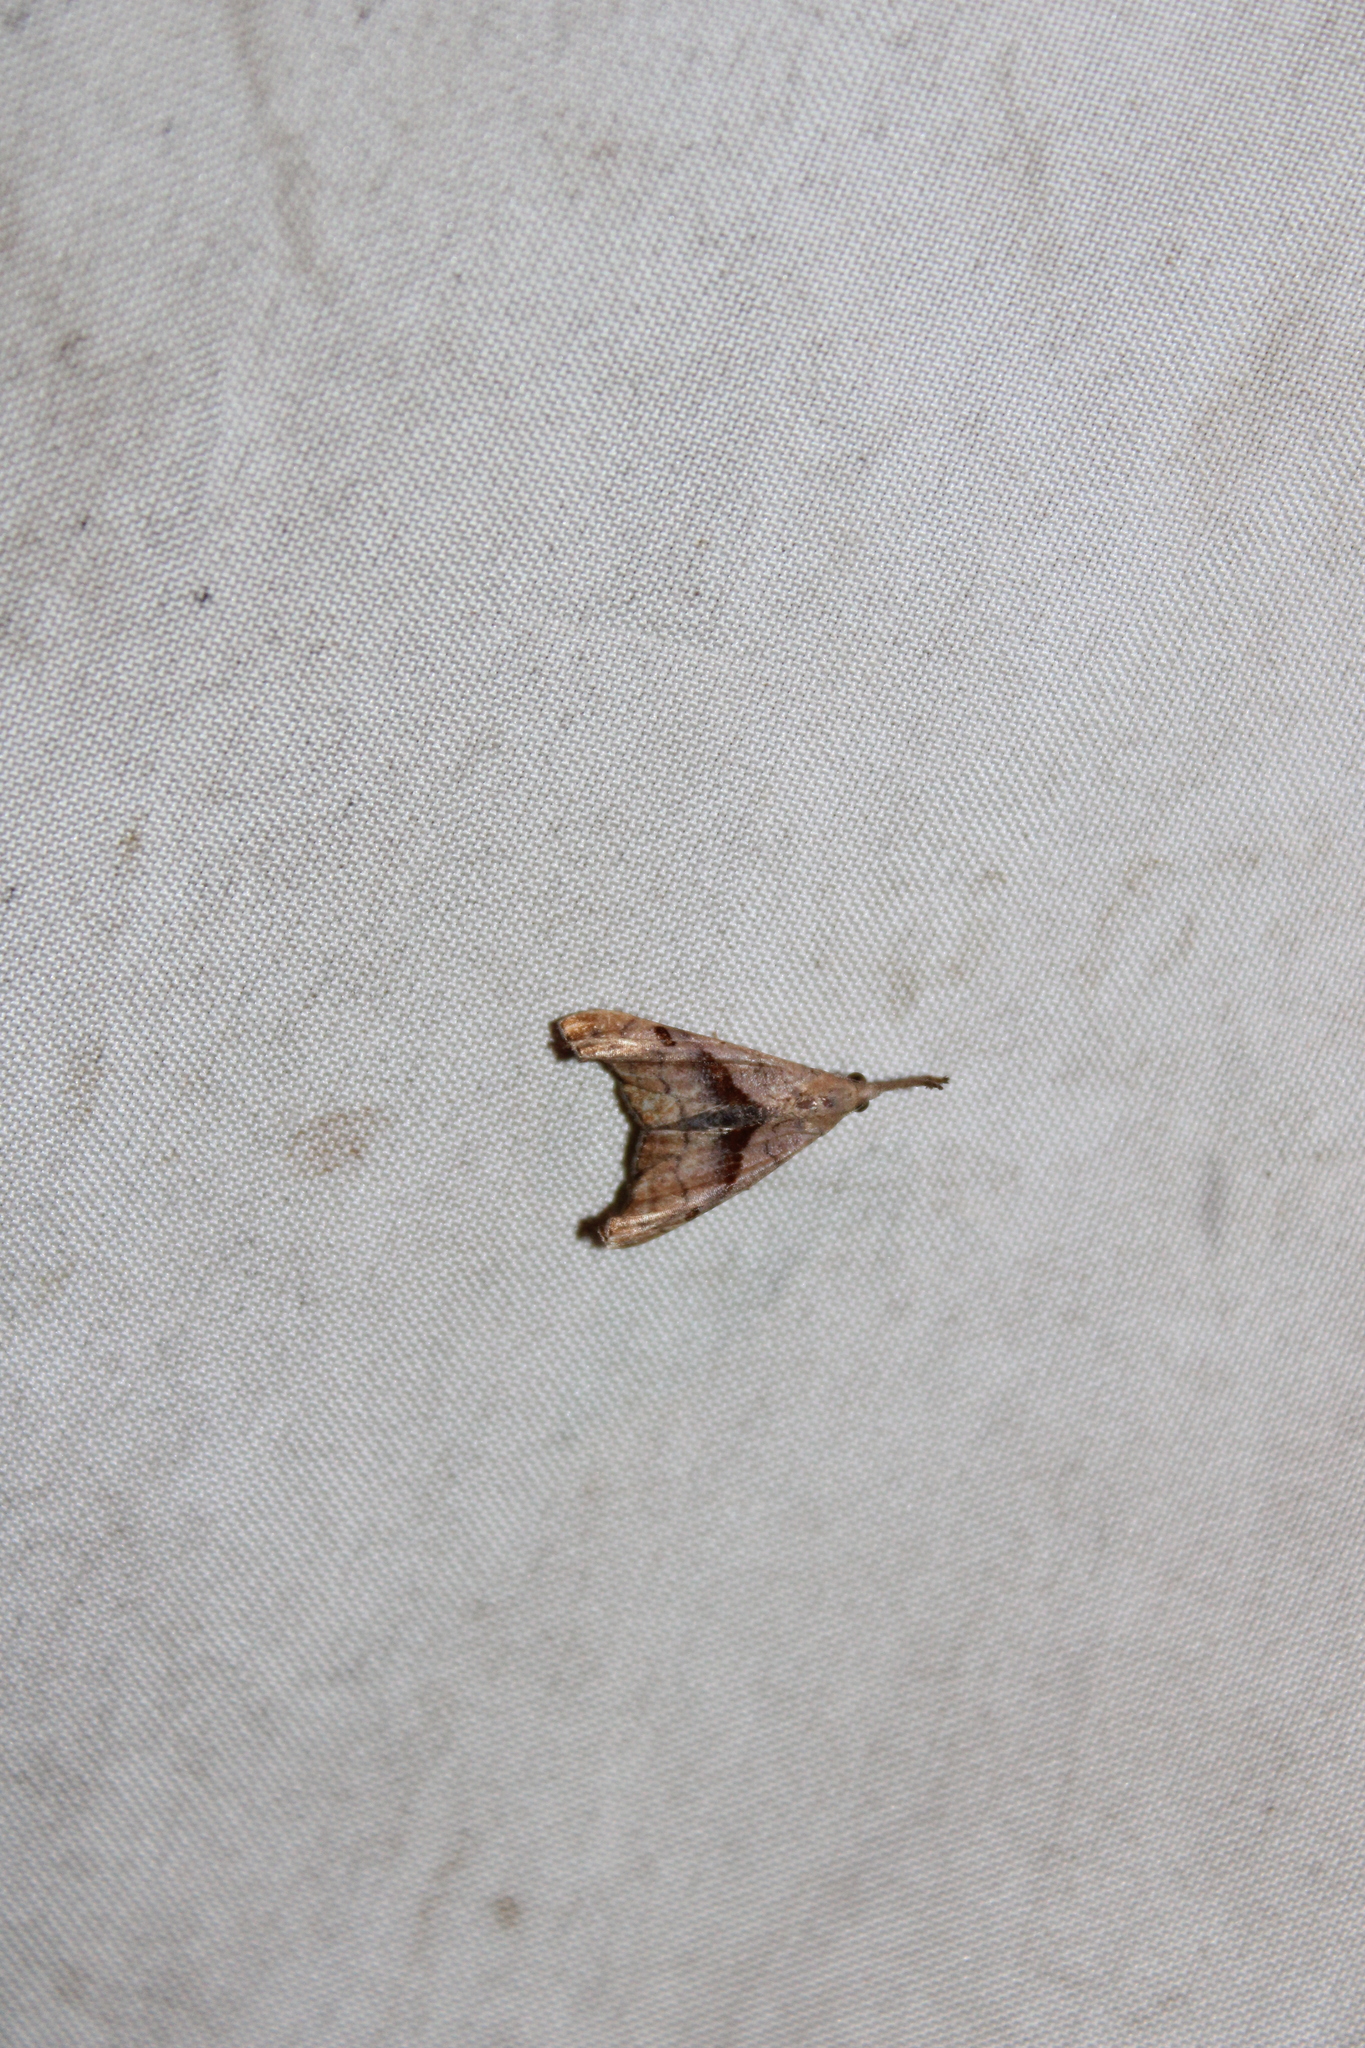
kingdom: Animalia
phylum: Arthropoda
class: Insecta
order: Lepidoptera
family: Erebidae
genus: Palthis
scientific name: Palthis angulalis
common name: Dark-spotted palthis moth
